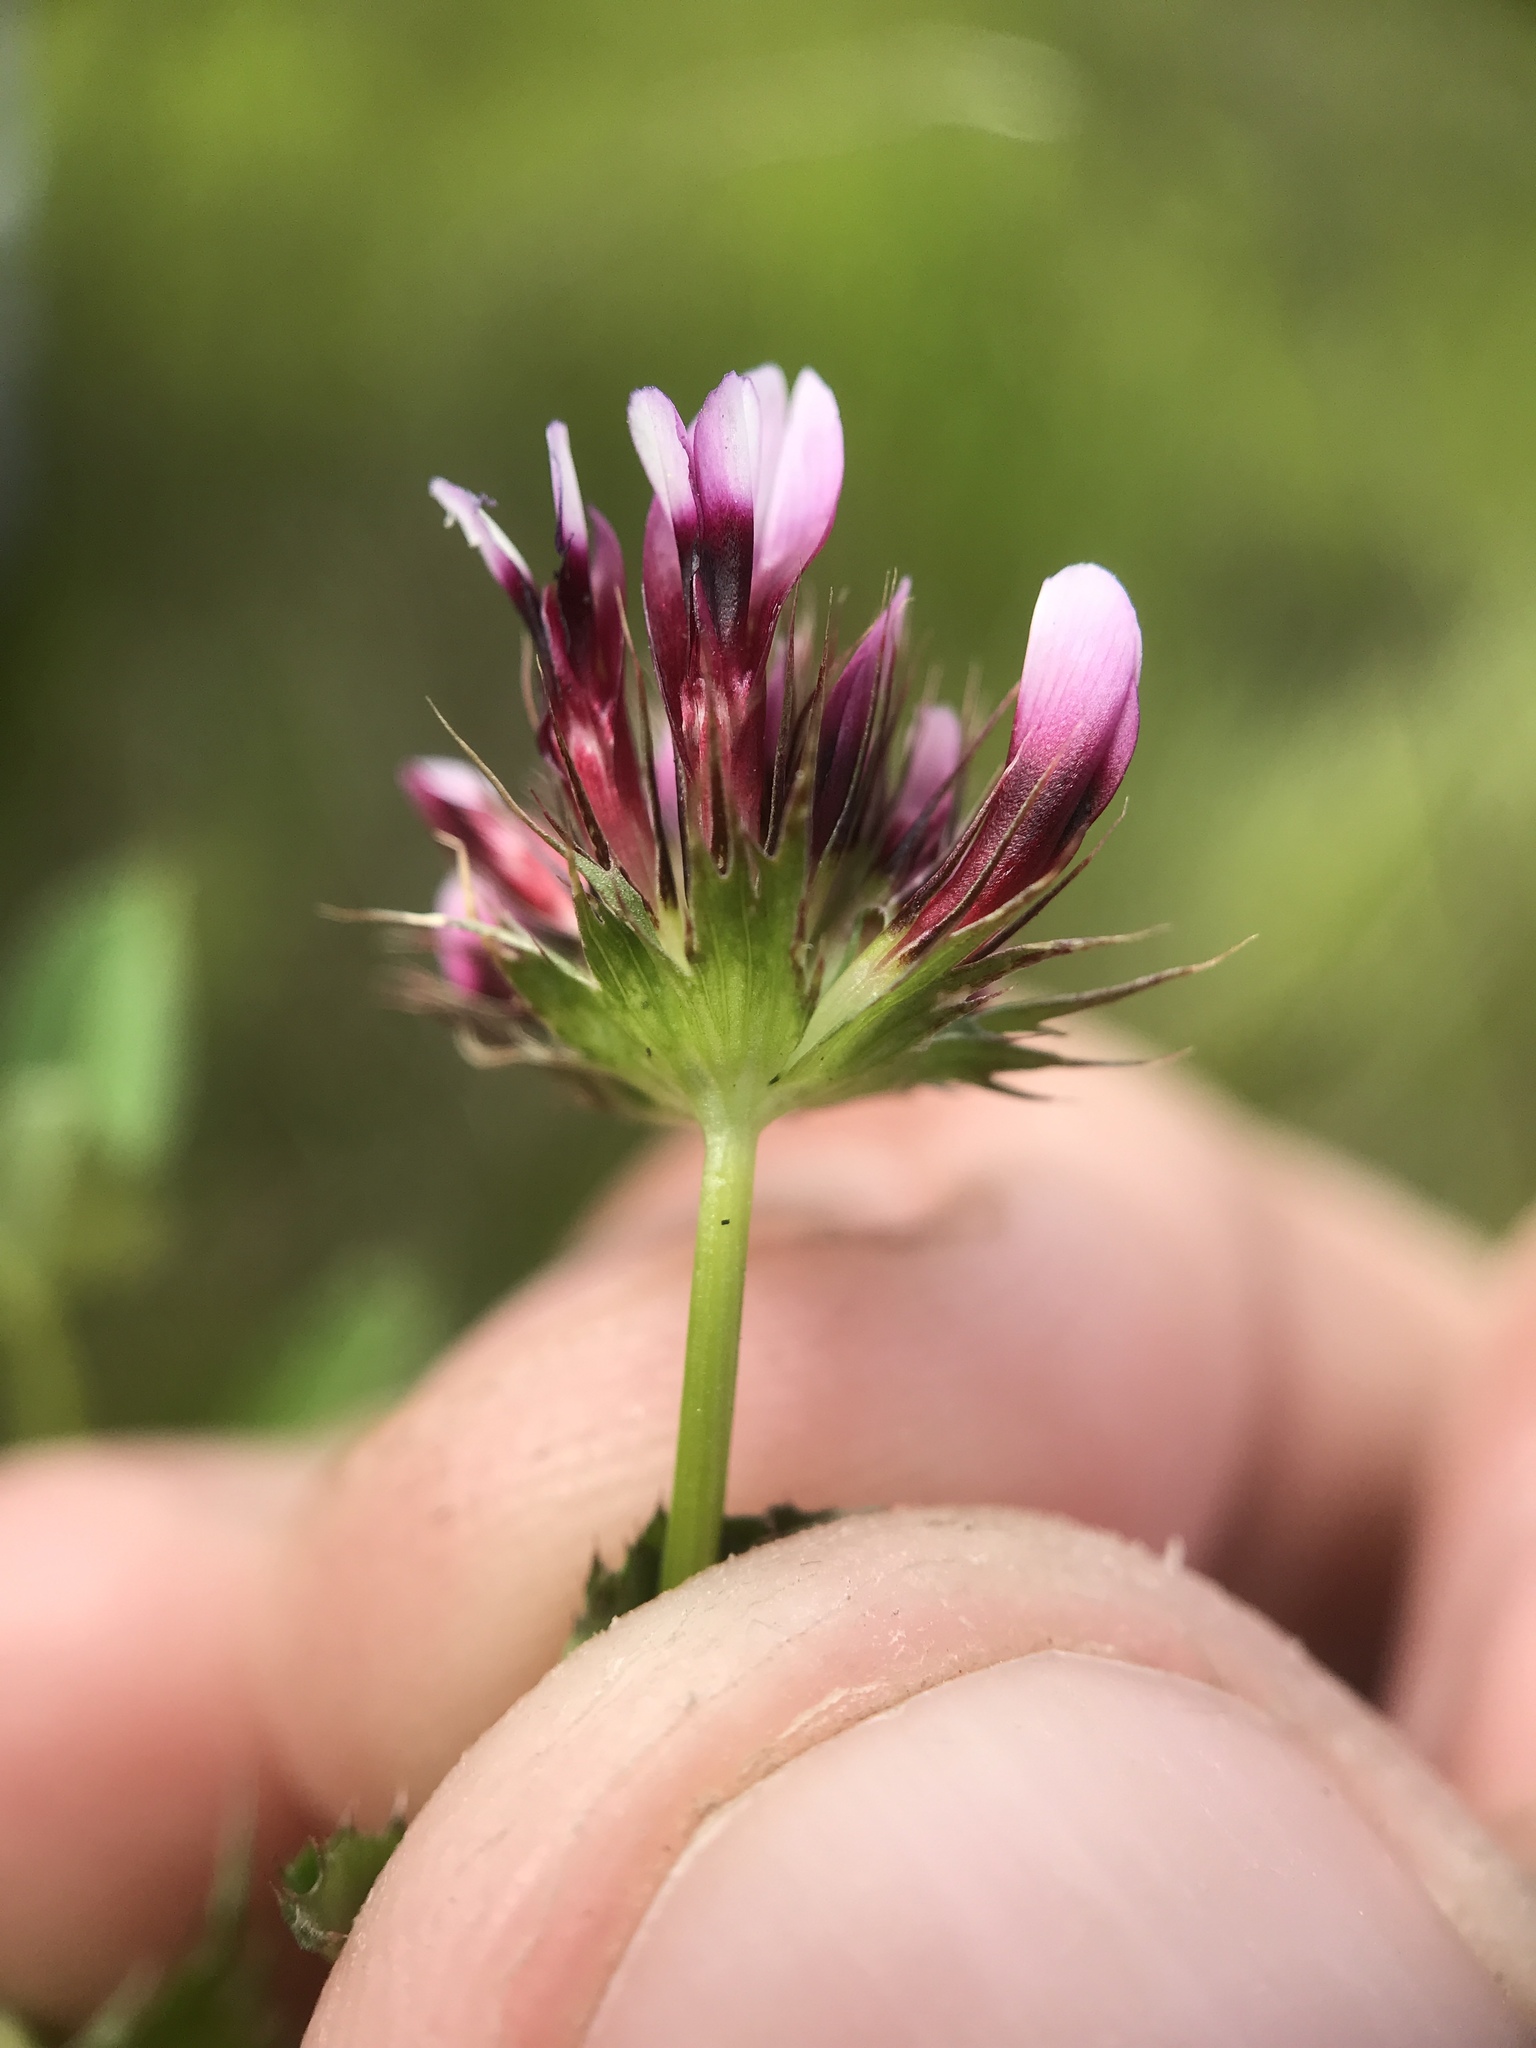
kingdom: Plantae
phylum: Tracheophyta
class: Magnoliopsida
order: Fabales
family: Fabaceae
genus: Trifolium
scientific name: Trifolium variegatum
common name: Whitetip clover
